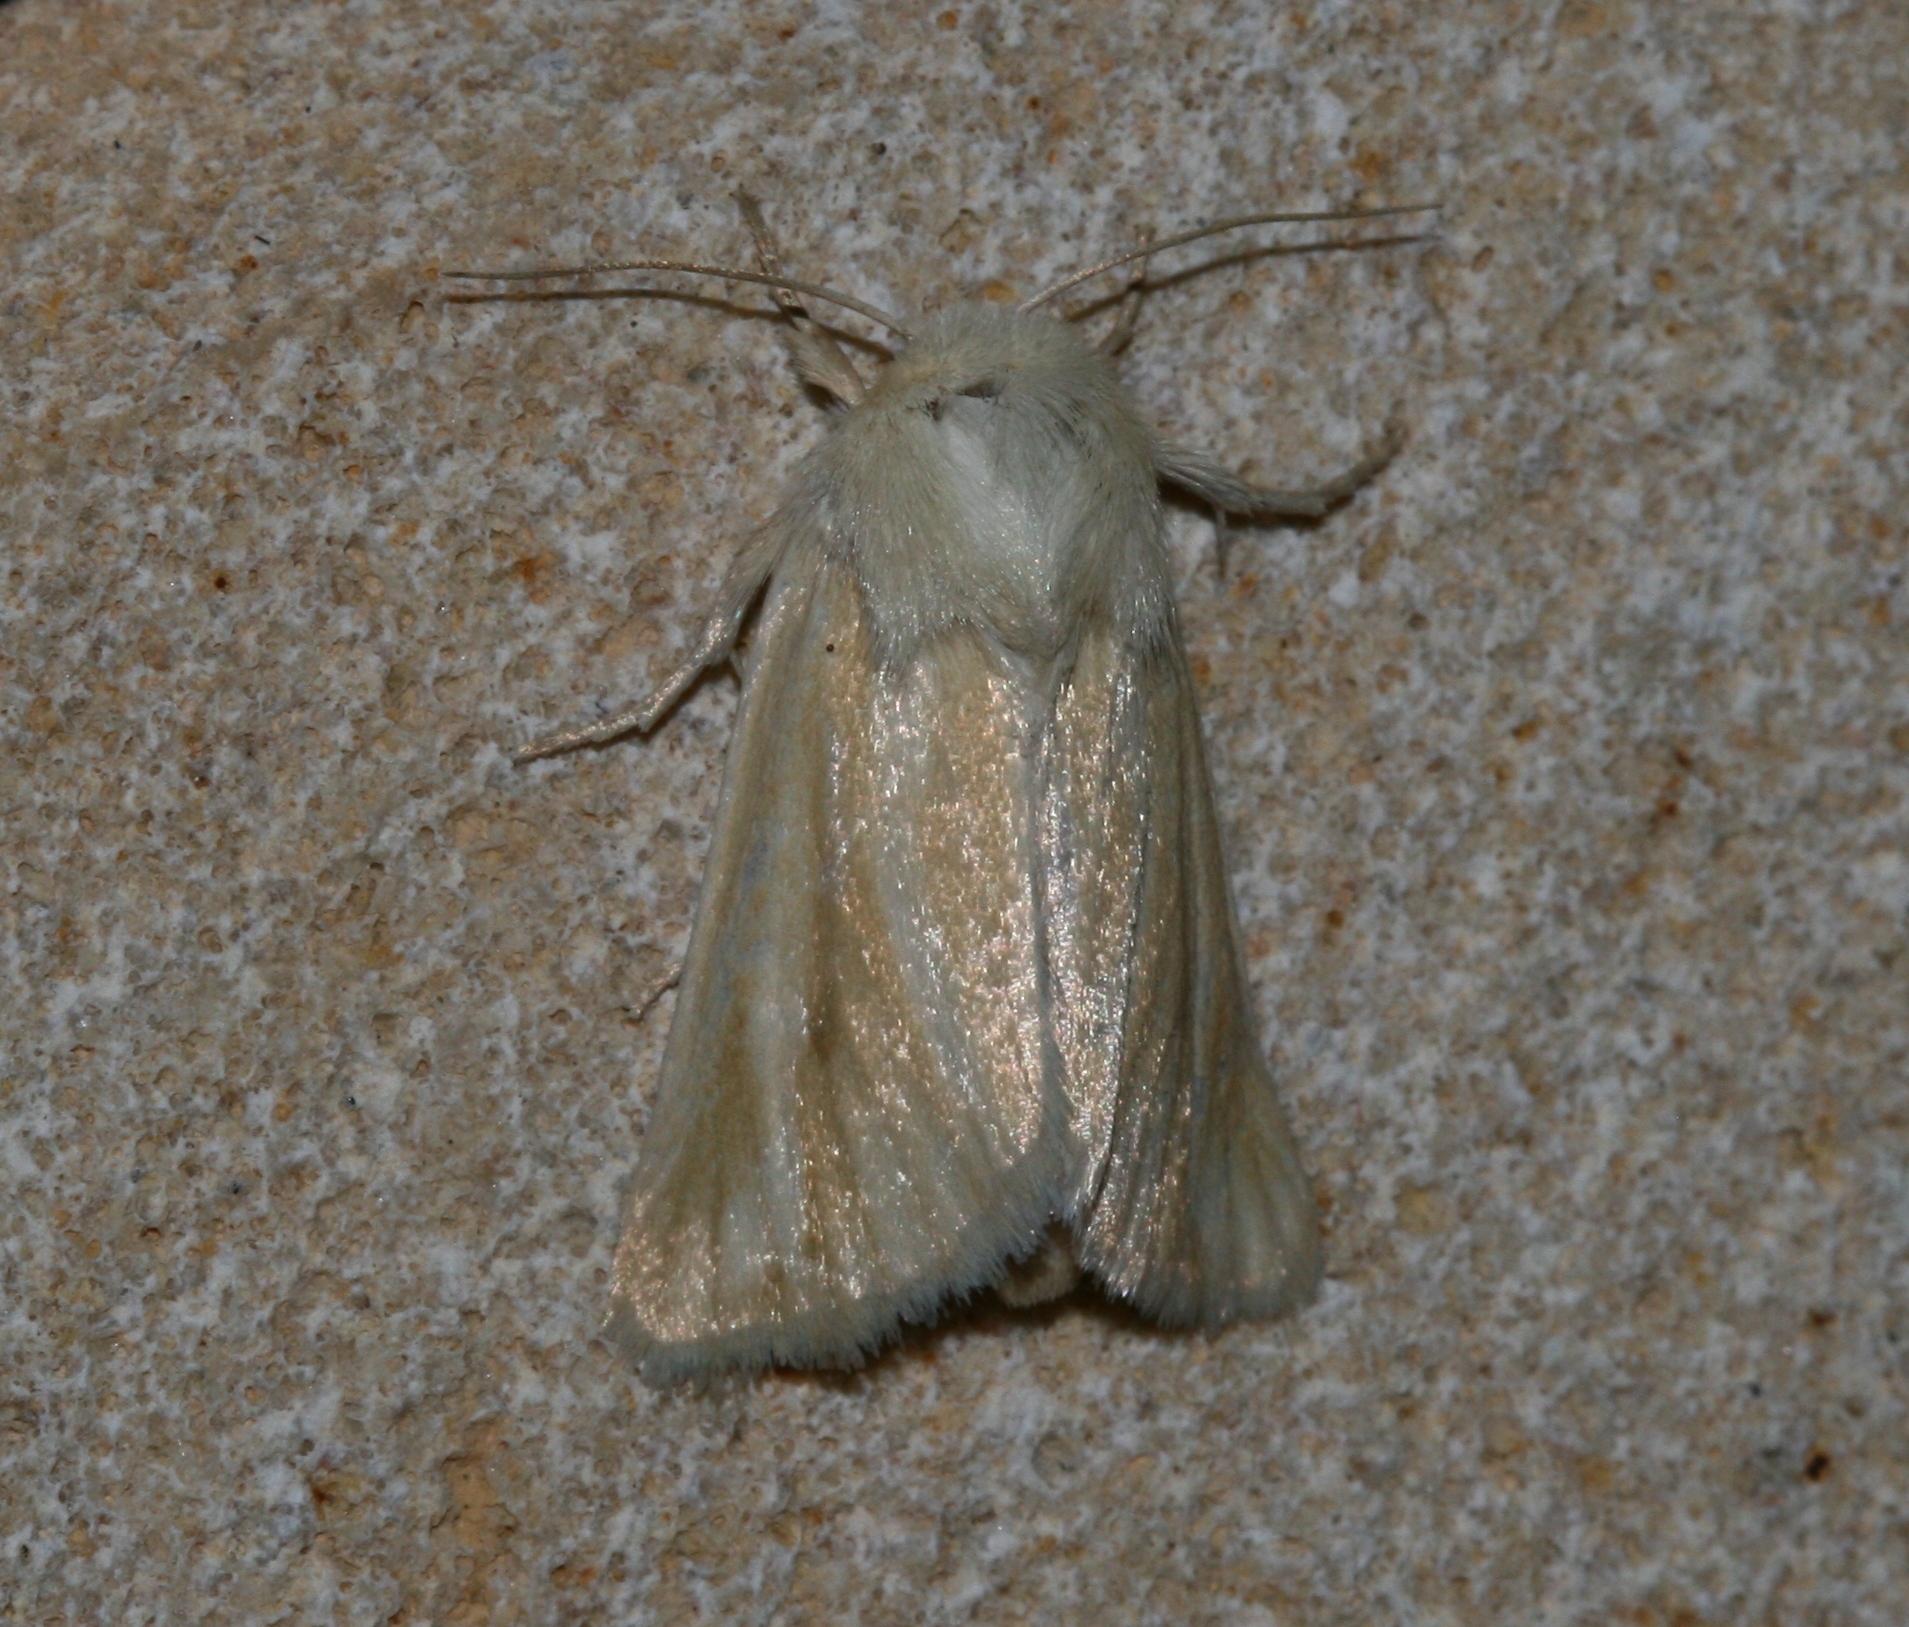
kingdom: Animalia
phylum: Arthropoda
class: Insecta
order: Lepidoptera
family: Noctuidae
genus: Oria
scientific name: Oria musculosa
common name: Brighton wainscot
